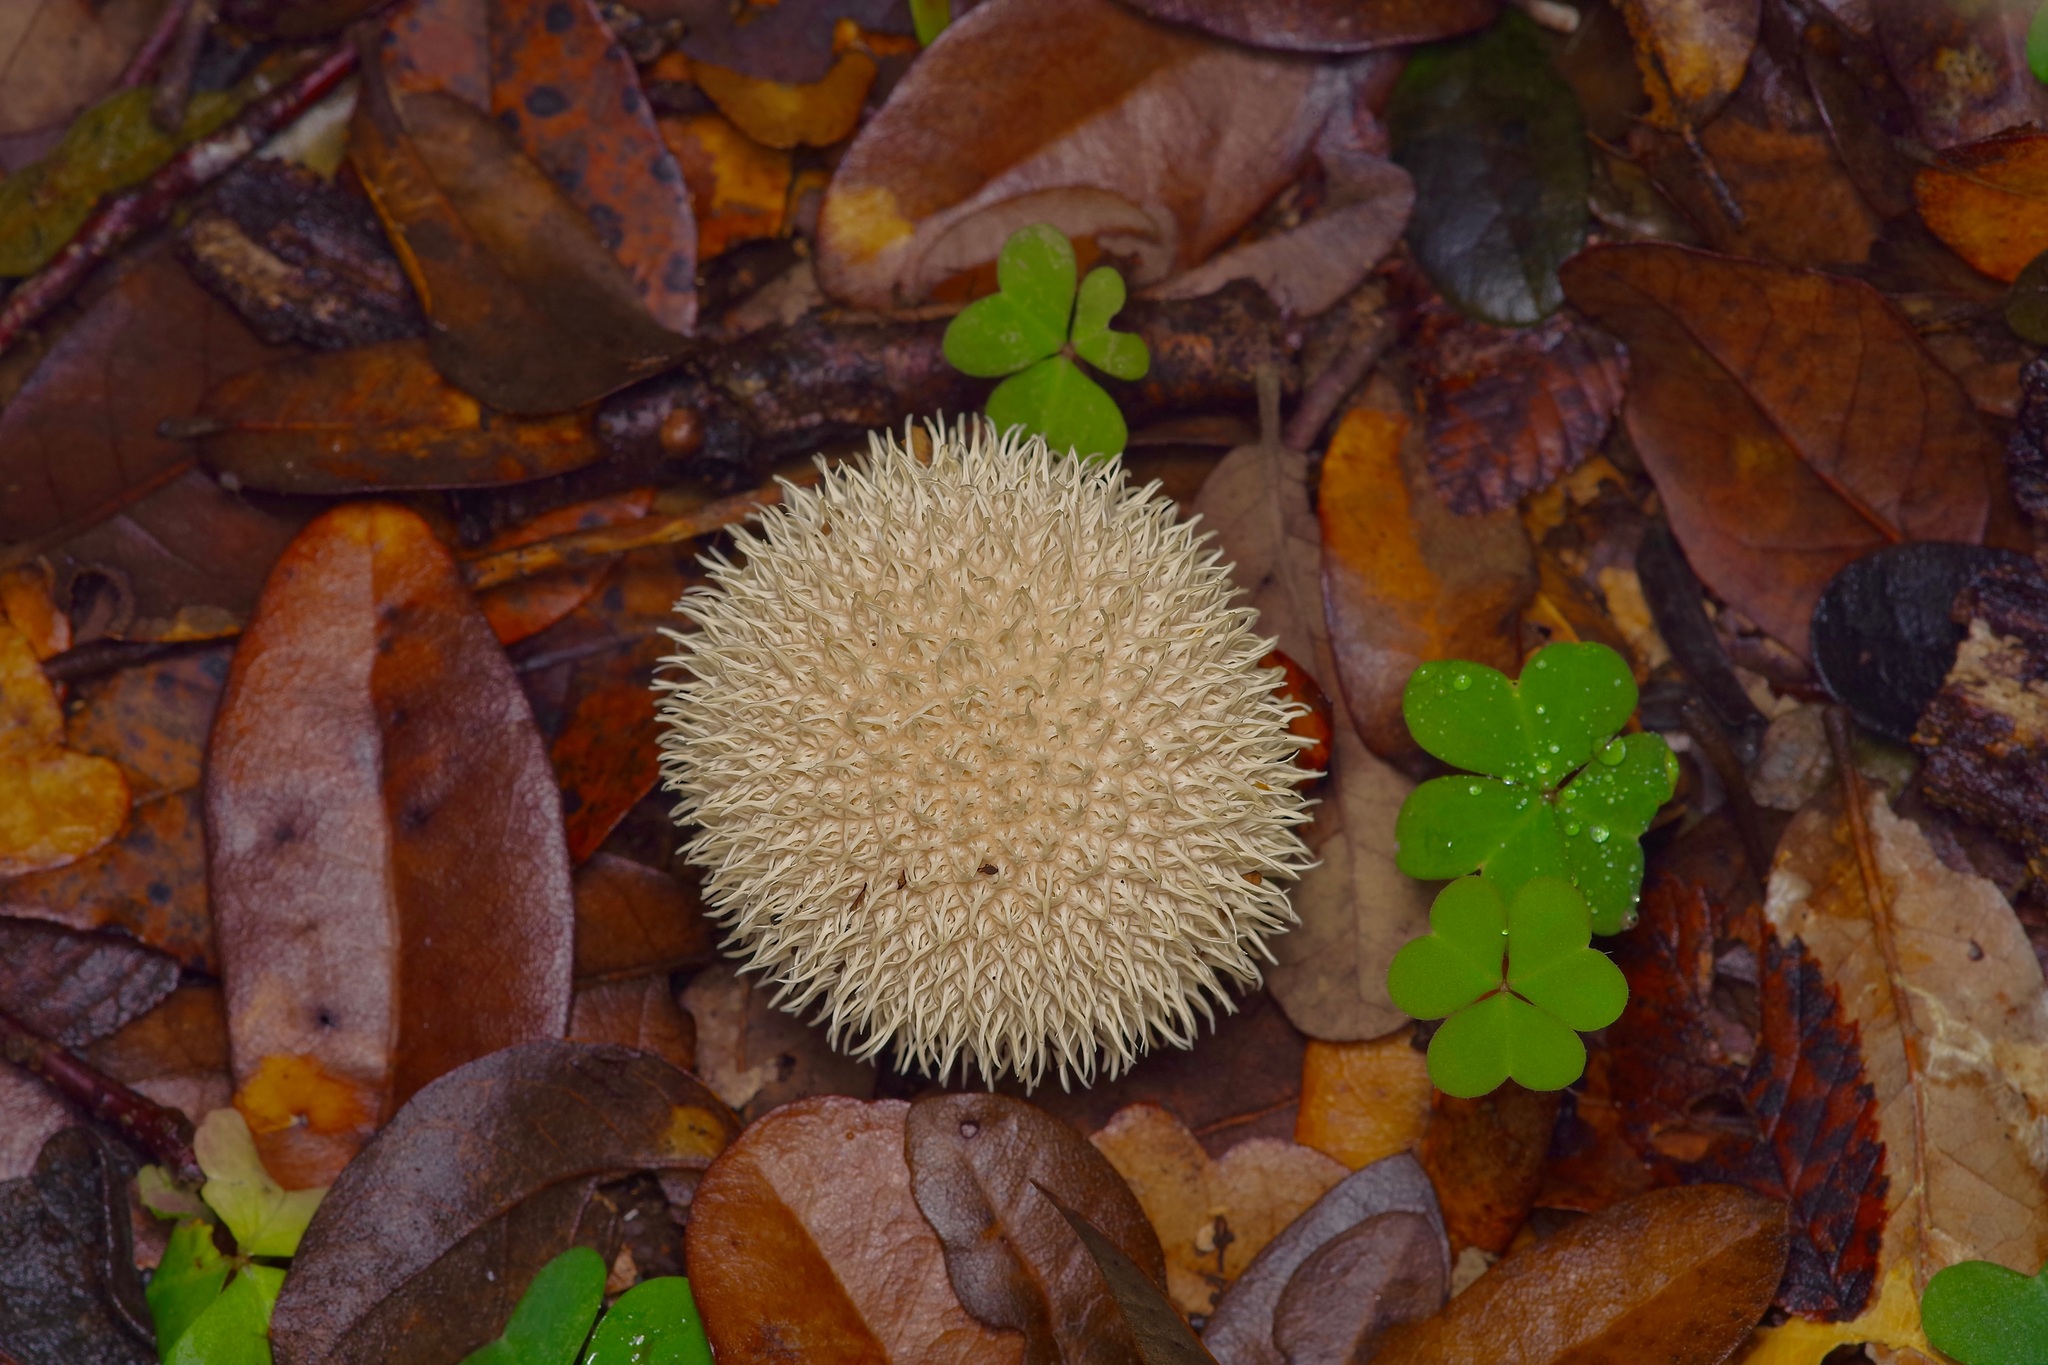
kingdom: Fungi
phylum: Basidiomycota
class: Agaricomycetes
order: Agaricales
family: Lycoperdaceae
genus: Lycoperdon
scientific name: Lycoperdon echinatum
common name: Hedgehog puffball
